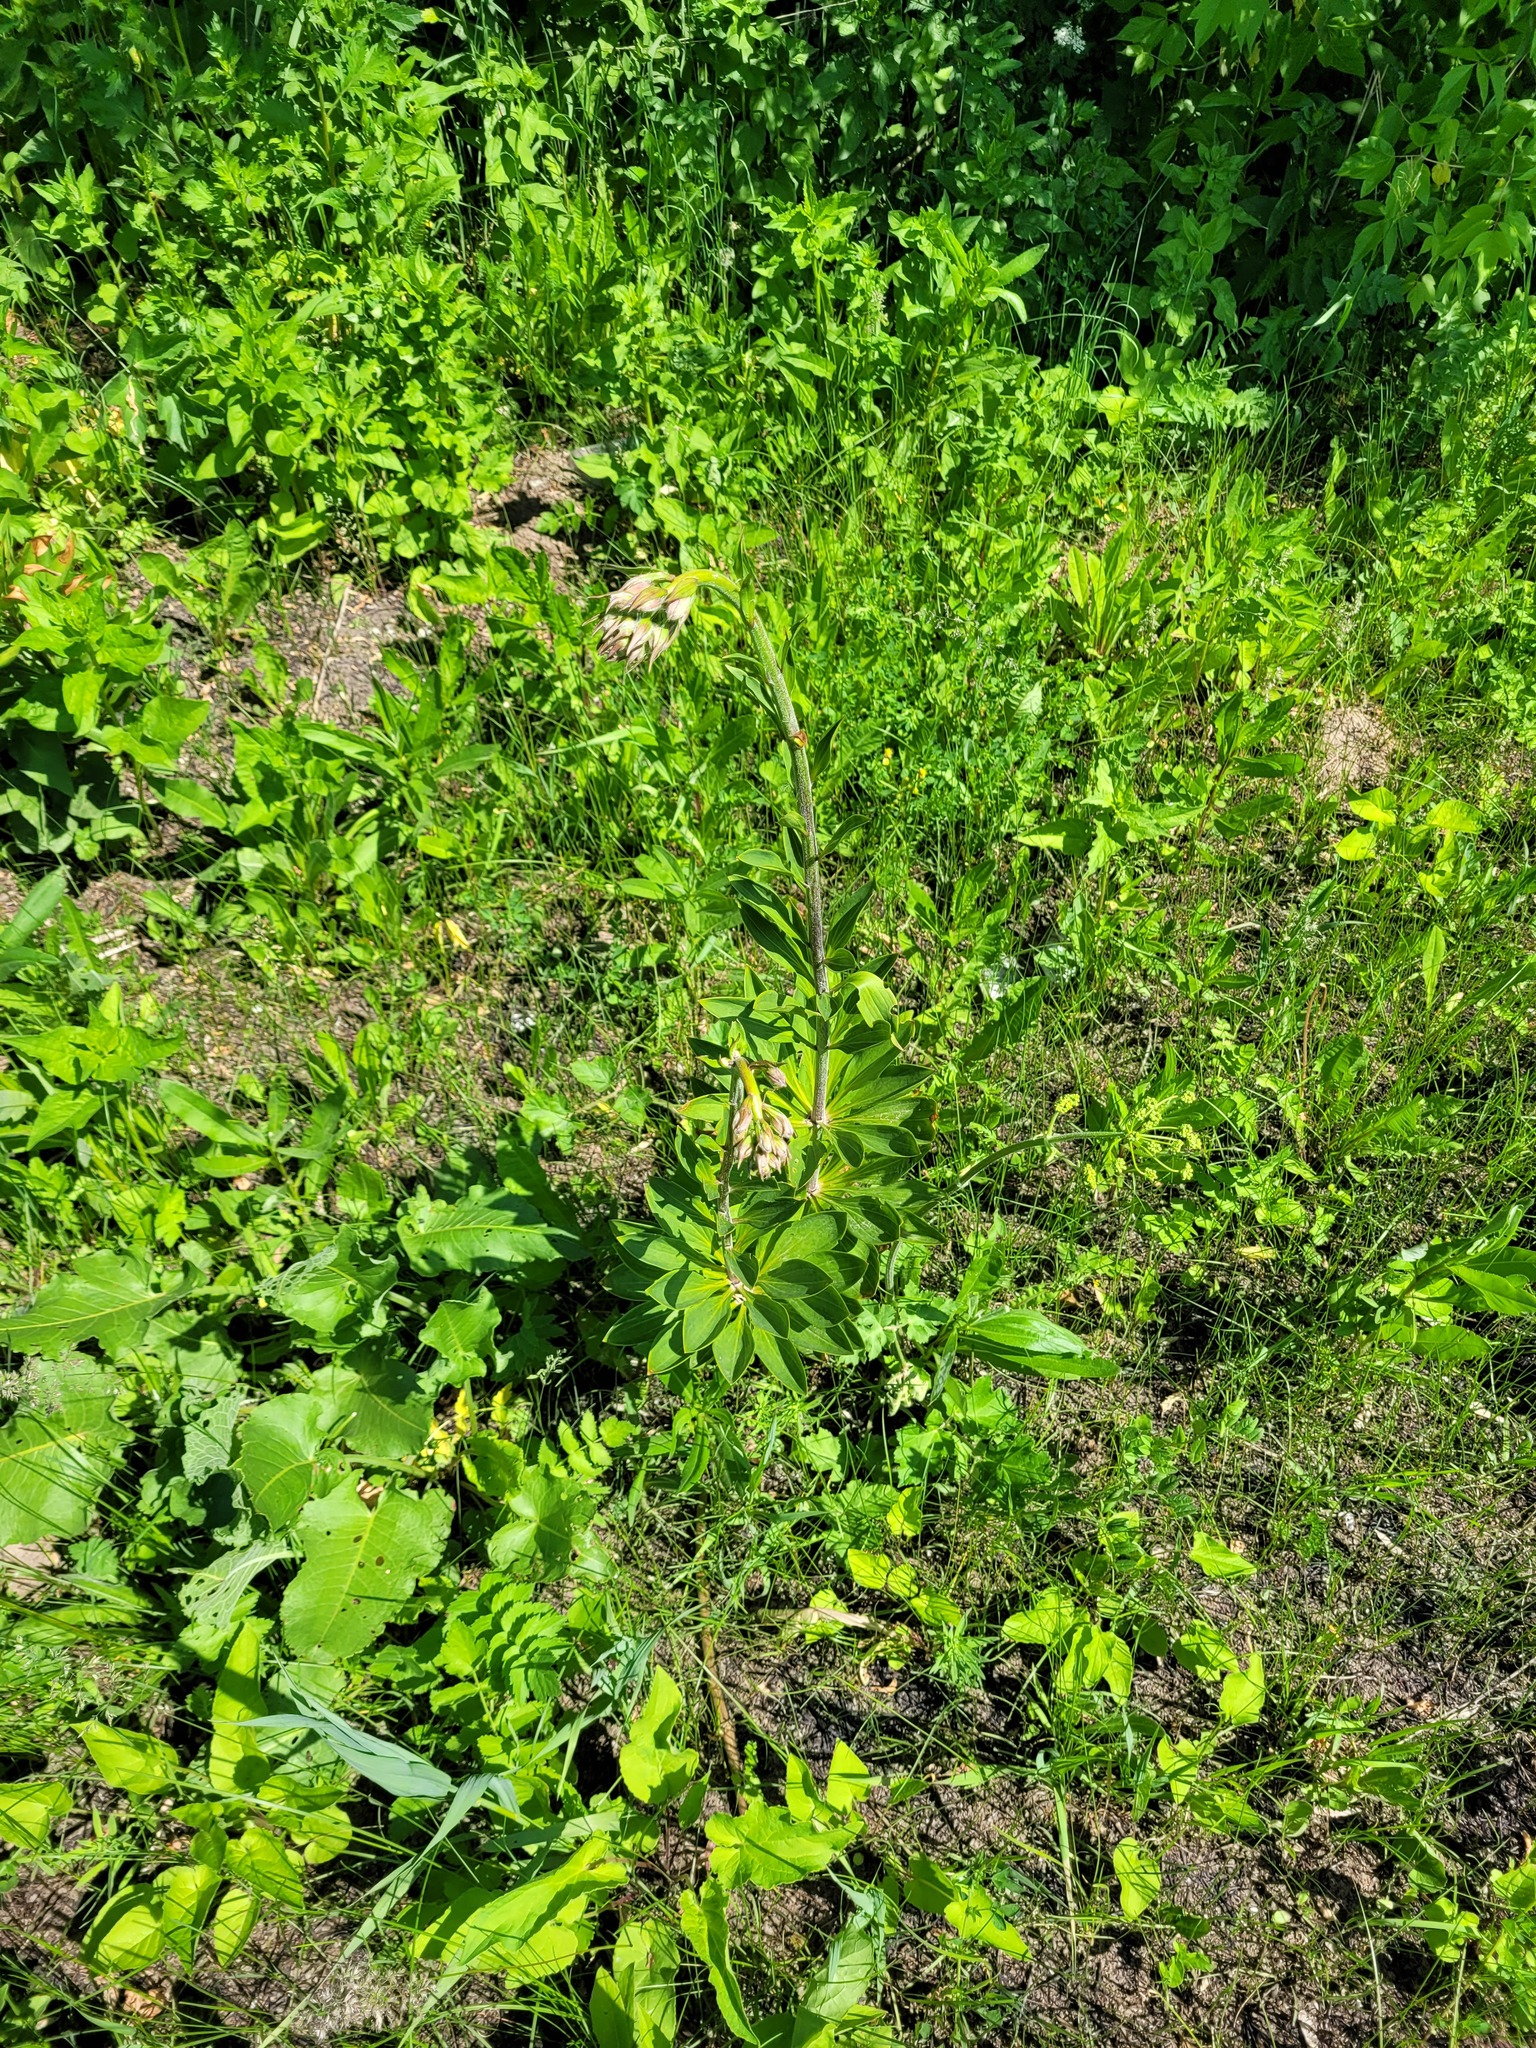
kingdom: Plantae
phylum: Tracheophyta
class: Liliopsida
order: Liliales
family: Liliaceae
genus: Lilium
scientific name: Lilium martagon
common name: Martagon lily
